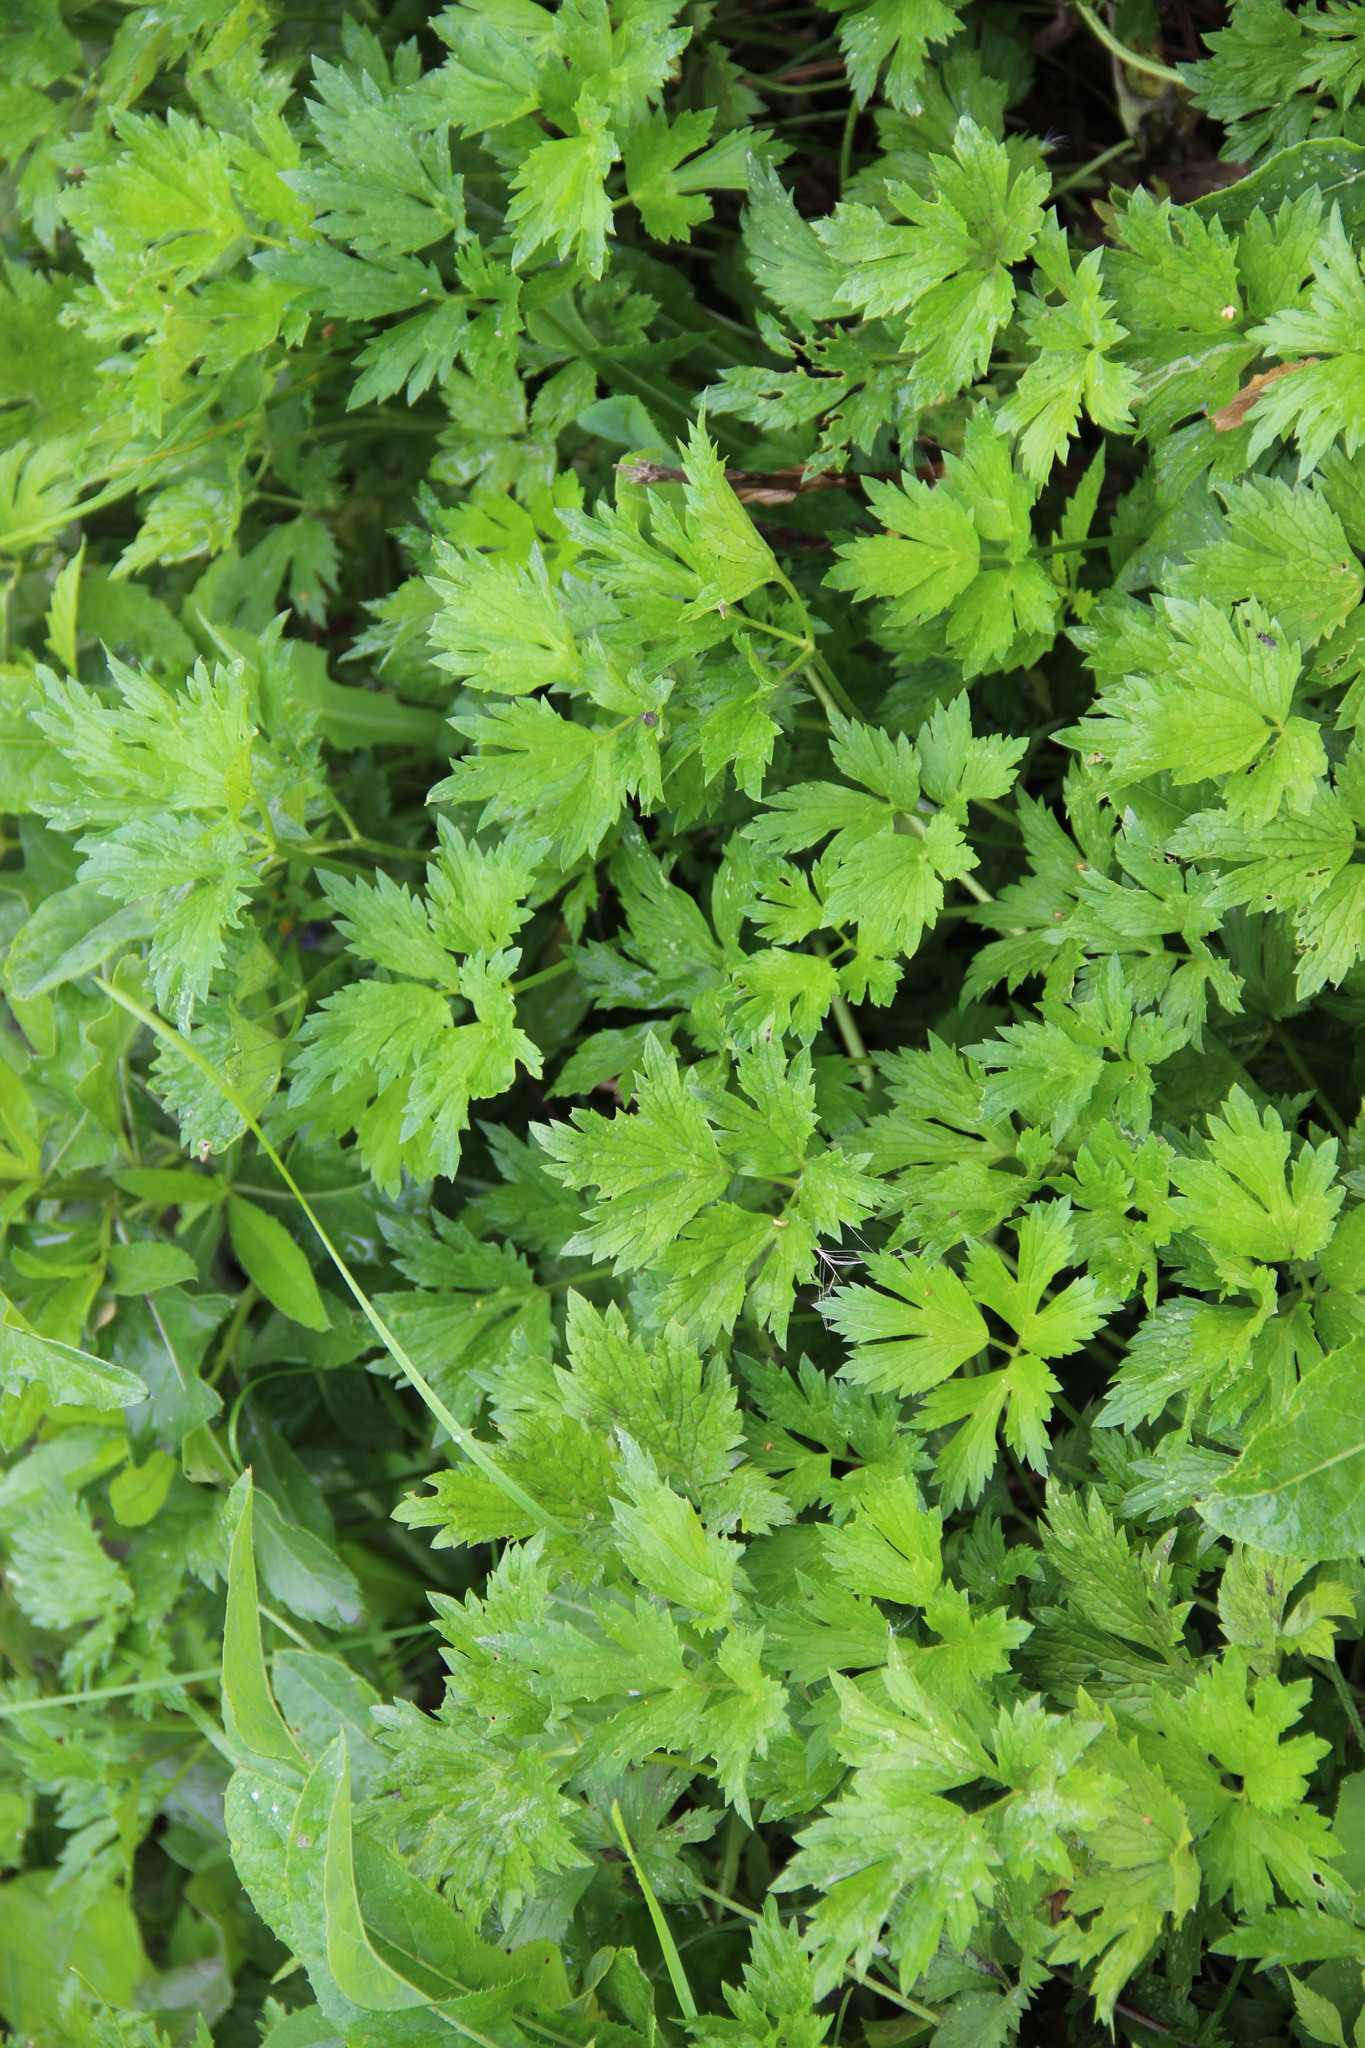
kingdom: Plantae
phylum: Tracheophyta
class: Magnoliopsida
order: Ranunculales
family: Ranunculaceae
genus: Ranunculus
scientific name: Ranunculus repens
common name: Creeping buttercup
